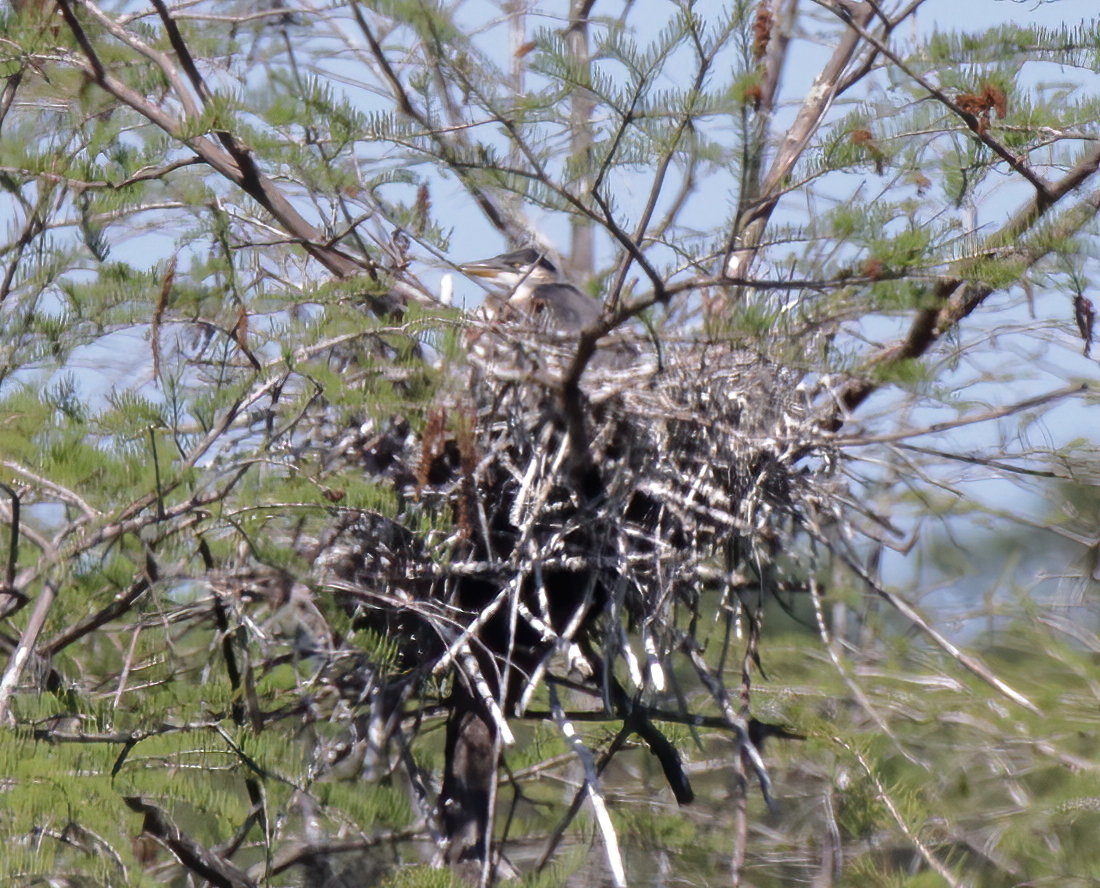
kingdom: Animalia
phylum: Chordata
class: Aves
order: Pelecaniformes
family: Ardeidae
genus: Ardea
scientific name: Ardea herodias
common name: Great blue heron
